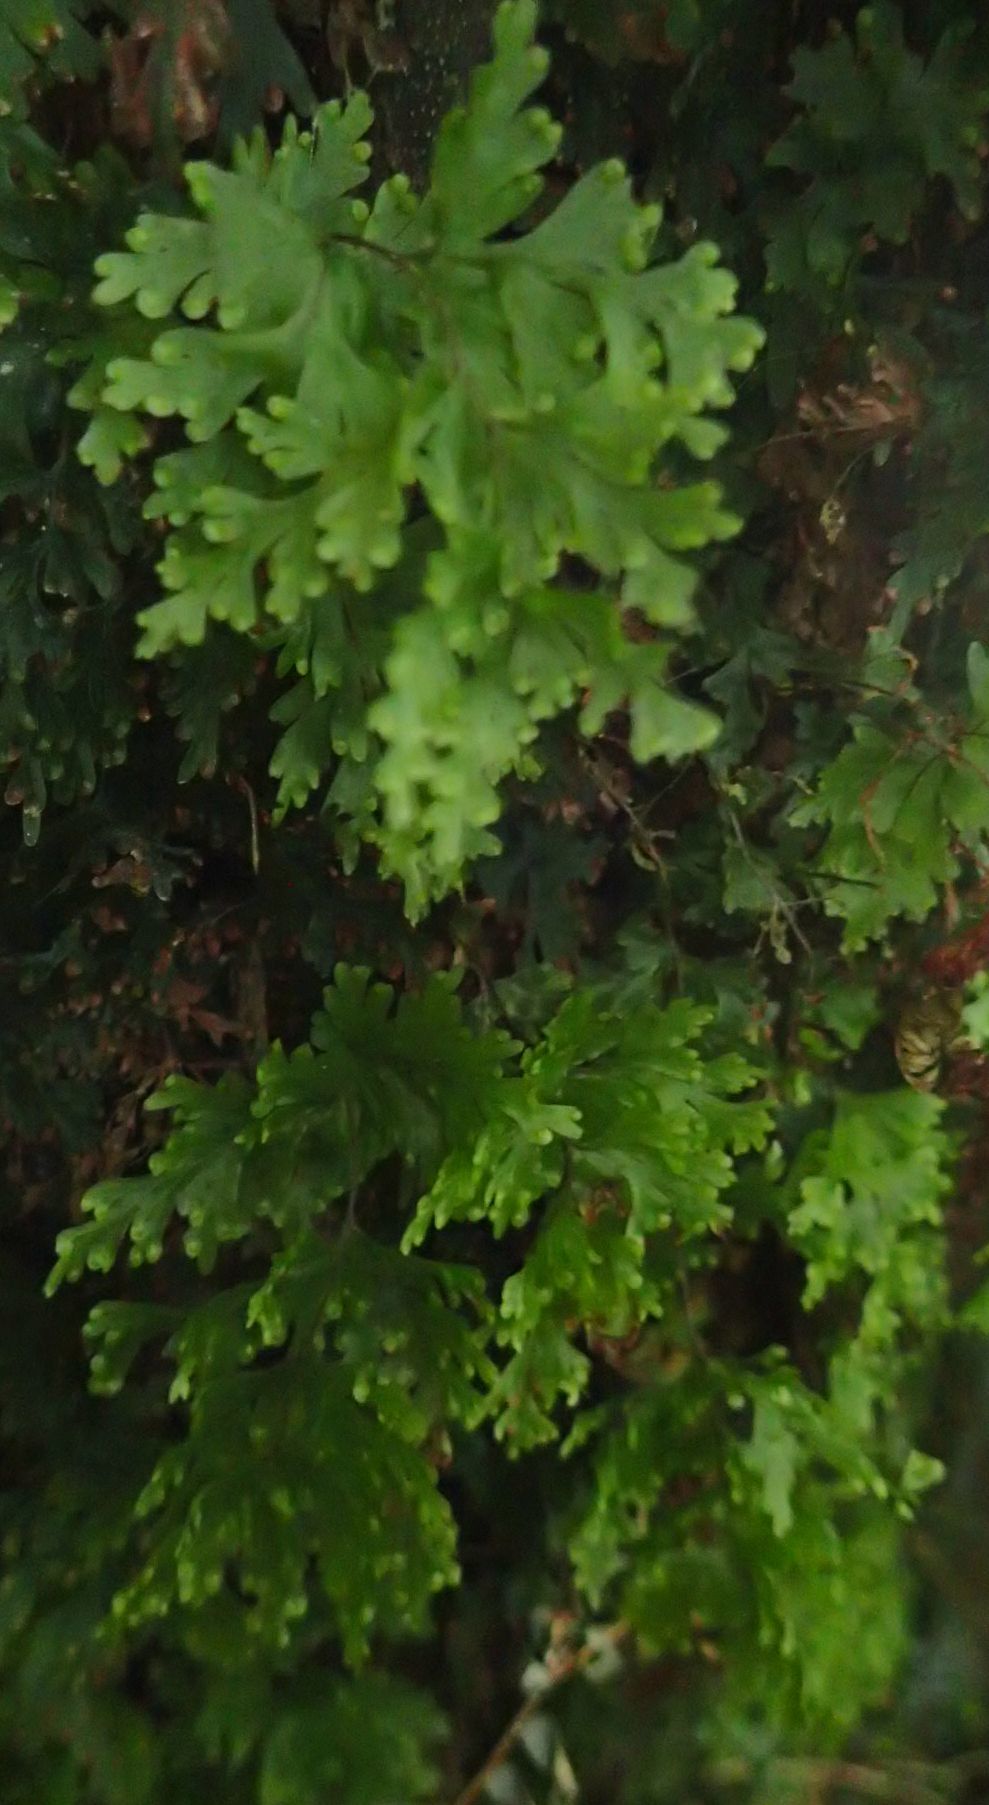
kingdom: Plantae
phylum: Tracheophyta
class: Polypodiopsida
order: Hymenophyllales
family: Hymenophyllaceae
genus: Hymenophyllum
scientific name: Hymenophyllum flabellatum
